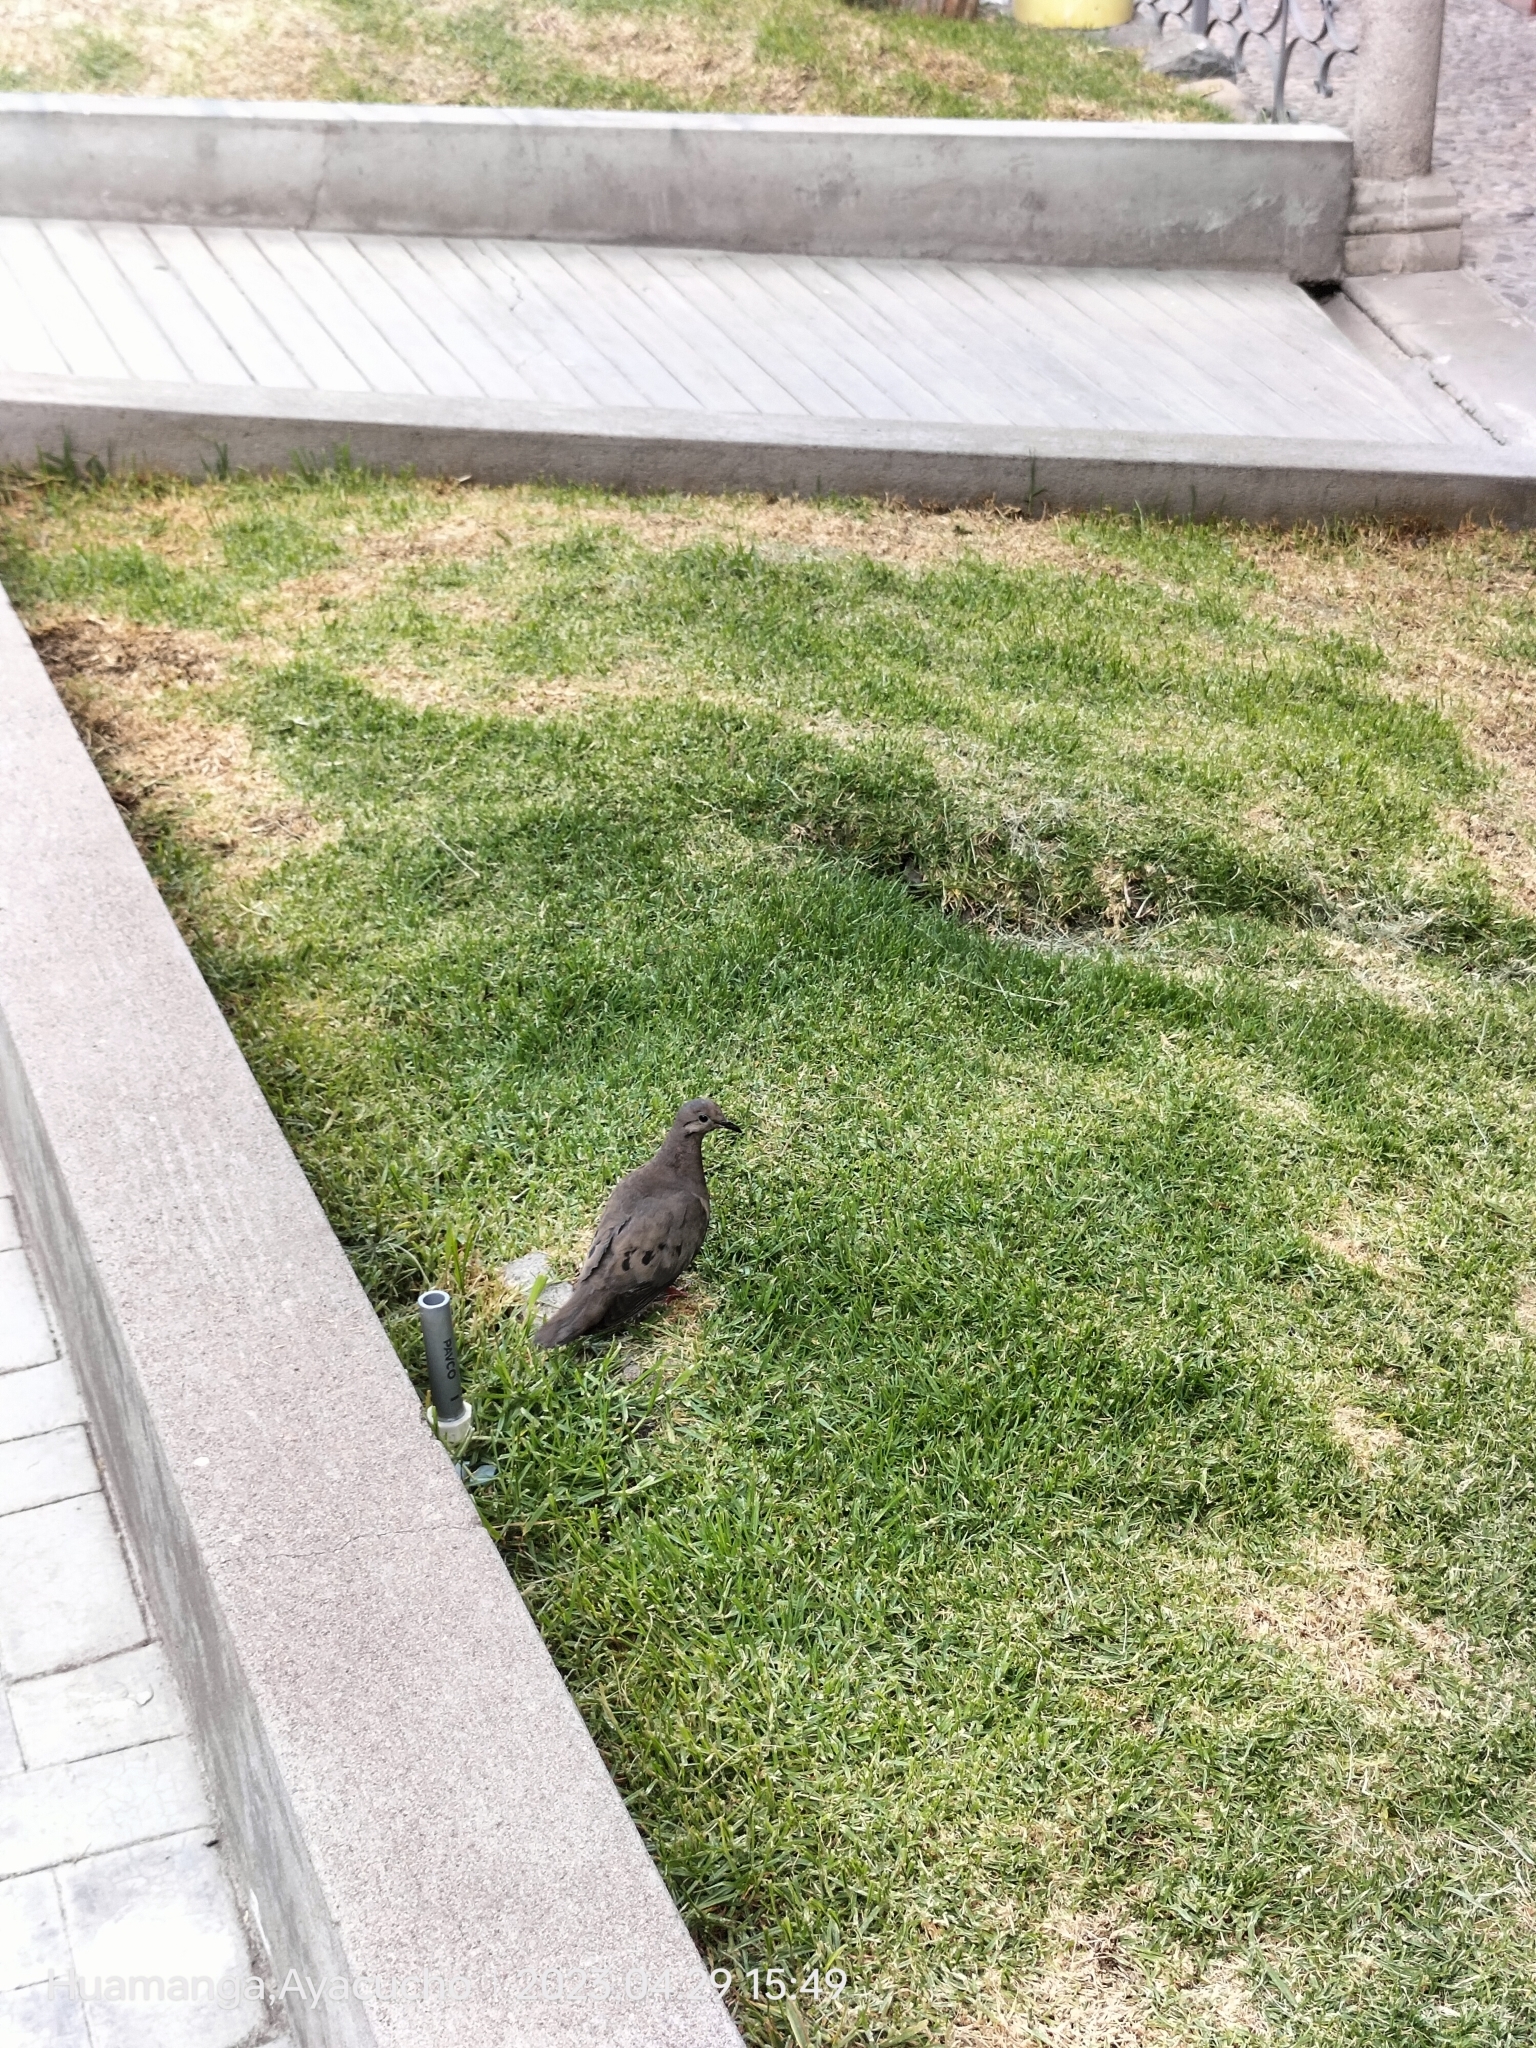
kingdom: Animalia
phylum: Chordata
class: Aves
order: Columbiformes
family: Columbidae
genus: Zenaida
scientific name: Zenaida auriculata
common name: Eared dove
